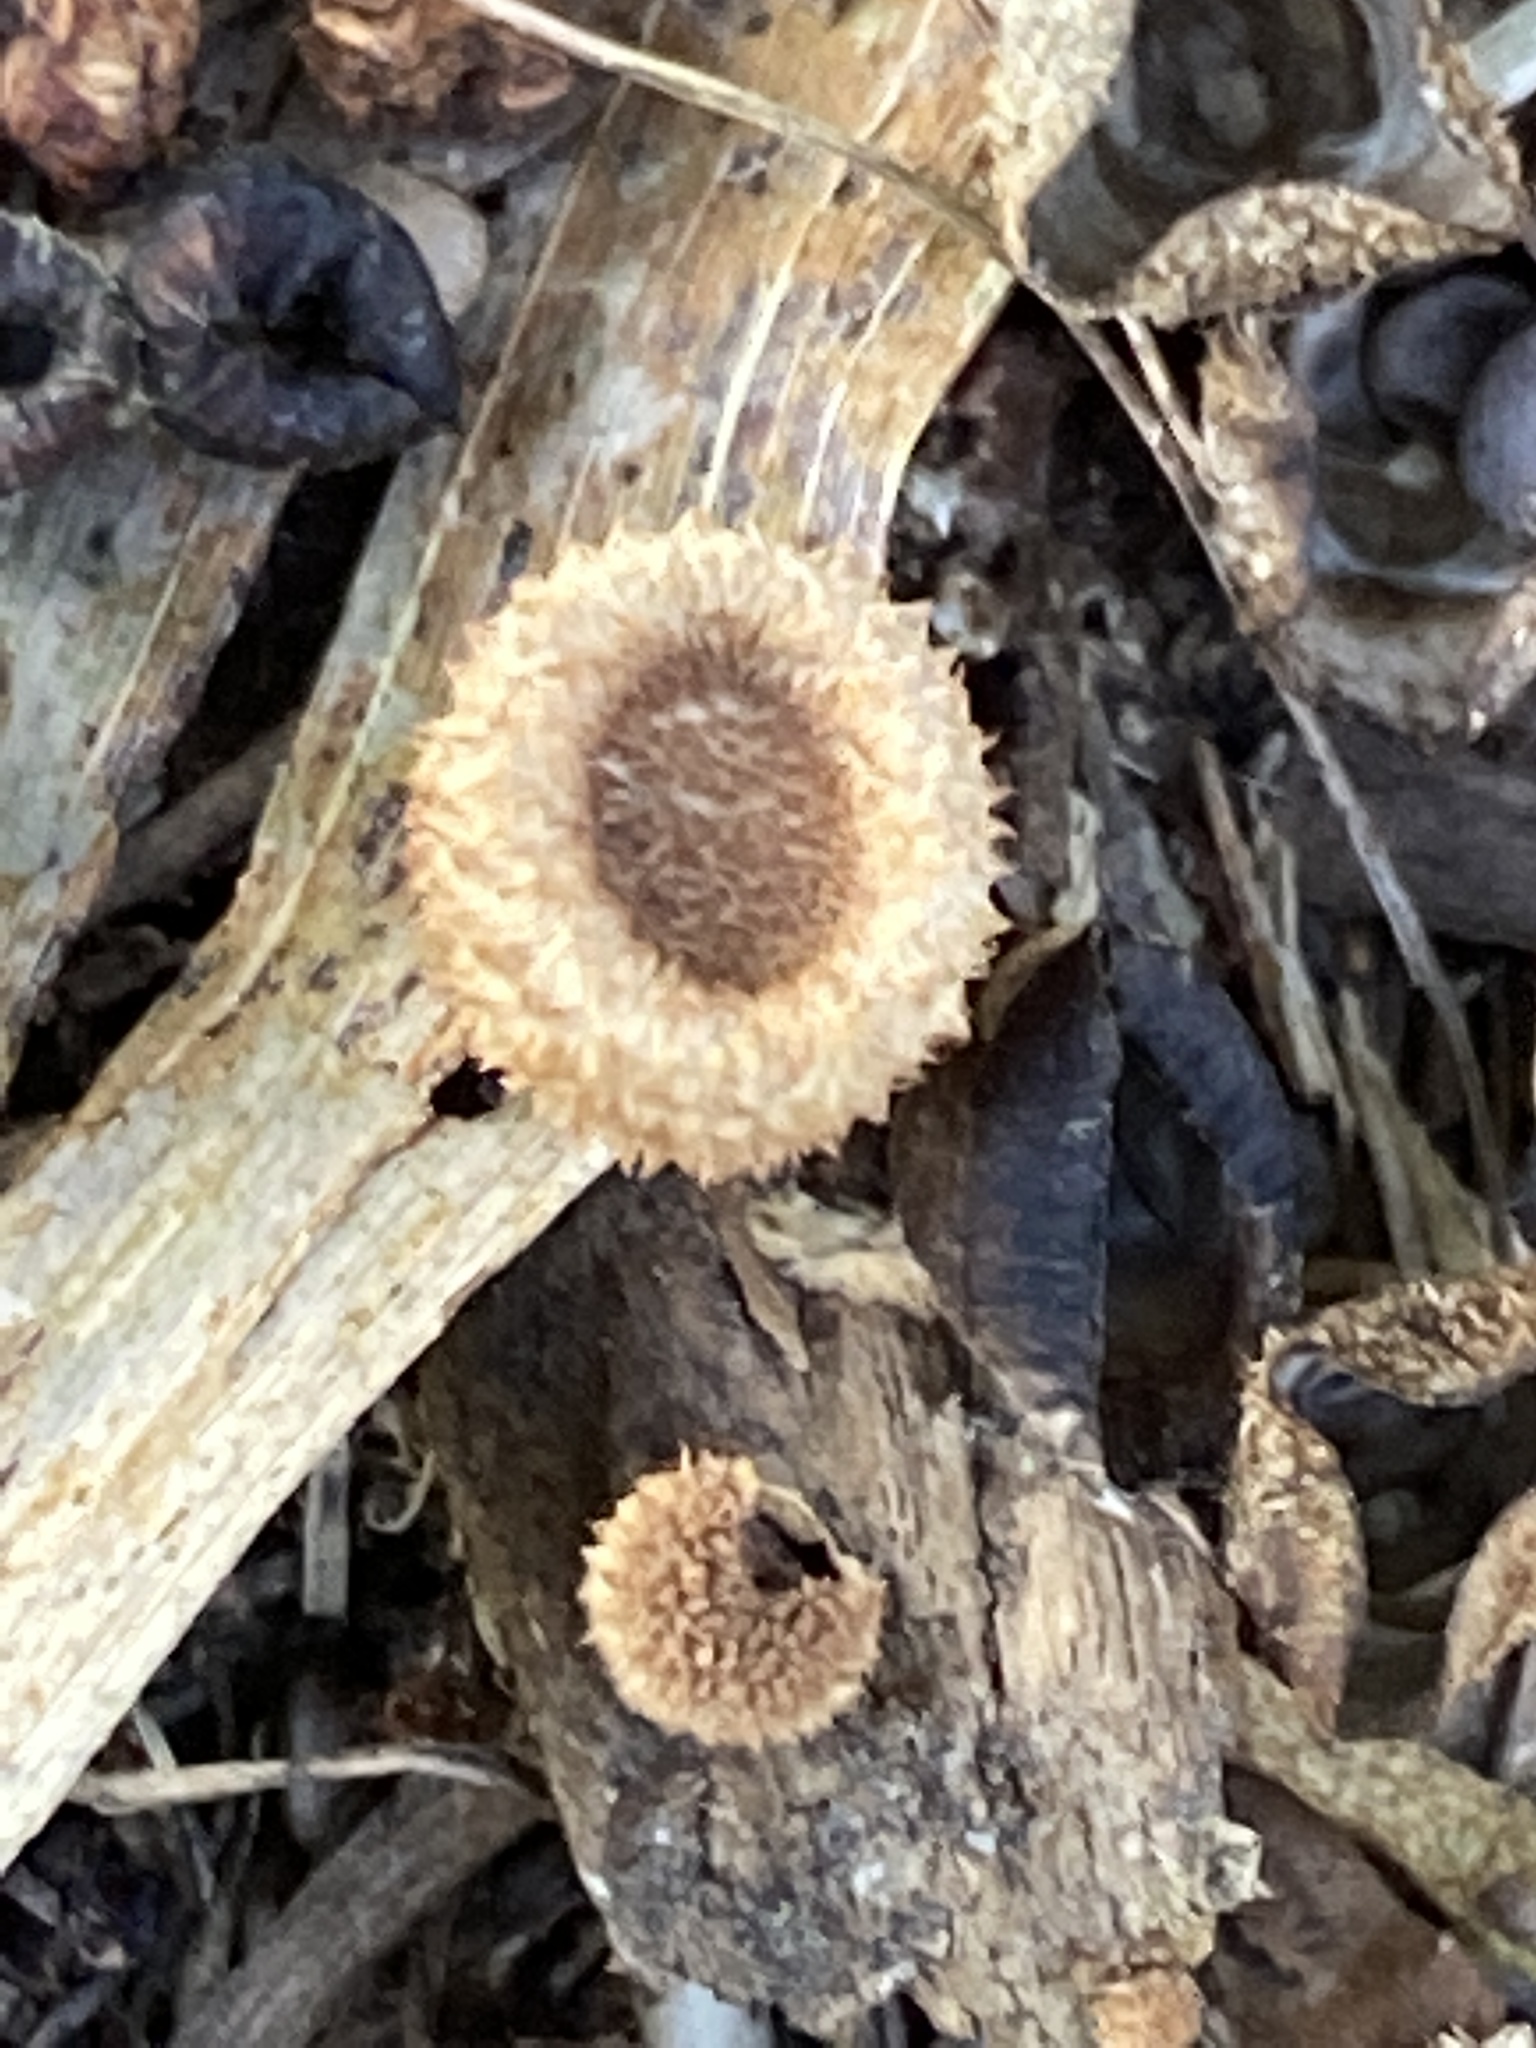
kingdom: Fungi
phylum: Basidiomycota
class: Agaricomycetes
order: Agaricales
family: Agaricaceae
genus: Cyathus
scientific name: Cyathus striatus
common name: Fluted bird's nest
